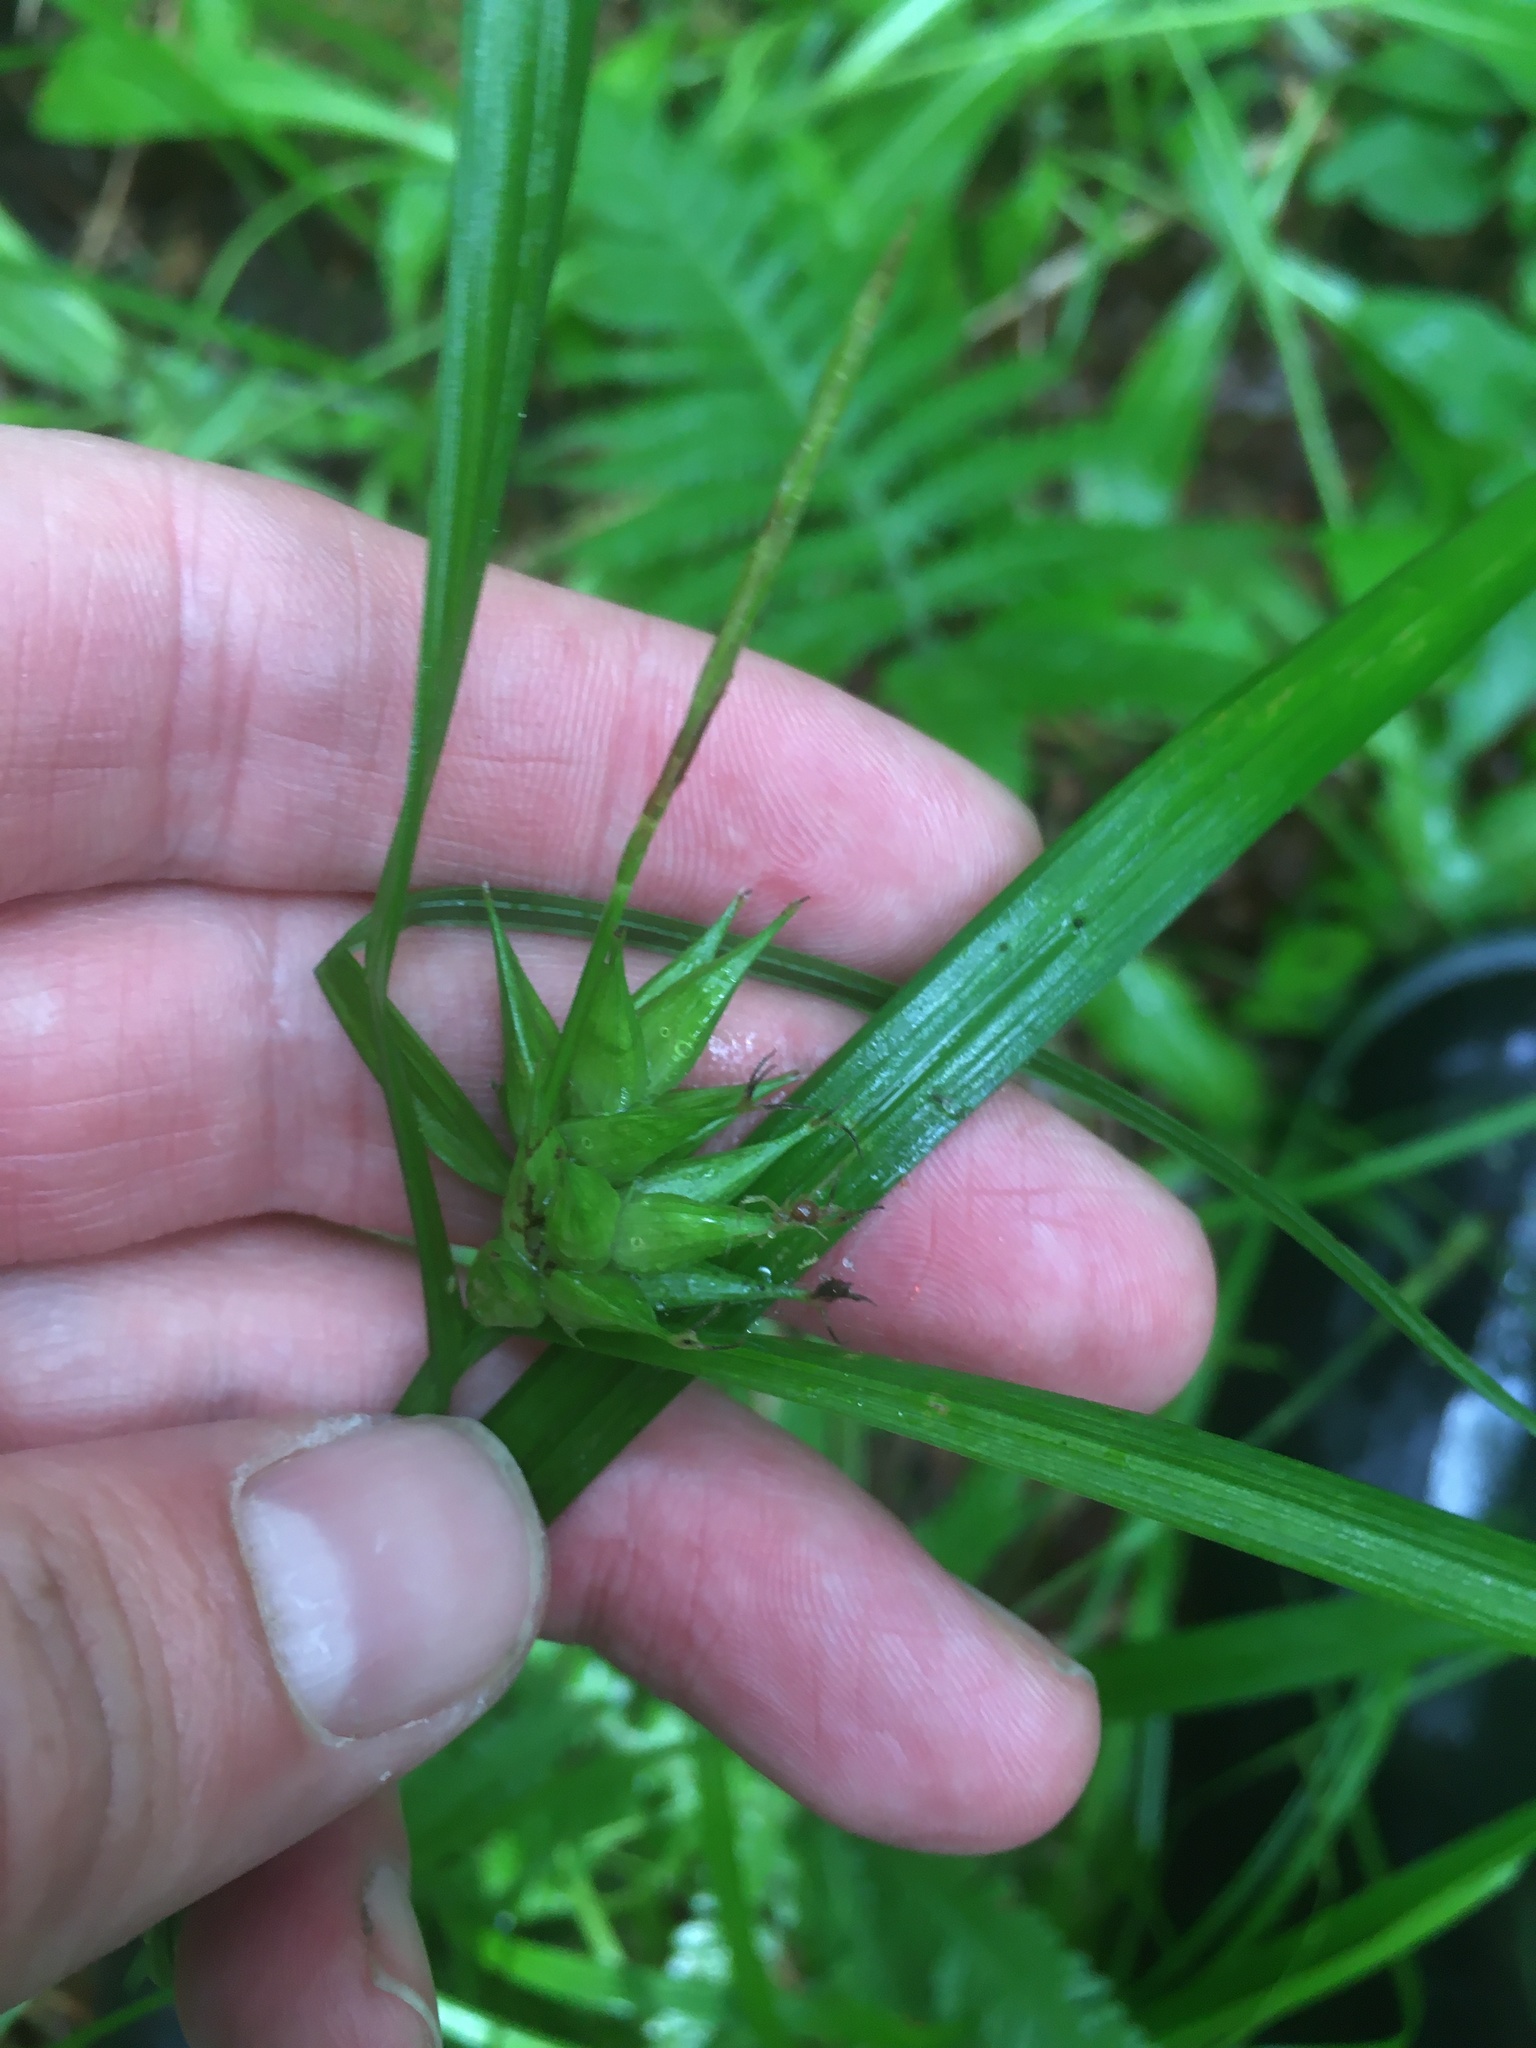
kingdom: Plantae
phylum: Tracheophyta
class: Liliopsida
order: Poales
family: Cyperaceae
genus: Carex
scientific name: Carex intumescens
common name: Greater bladder sedge
